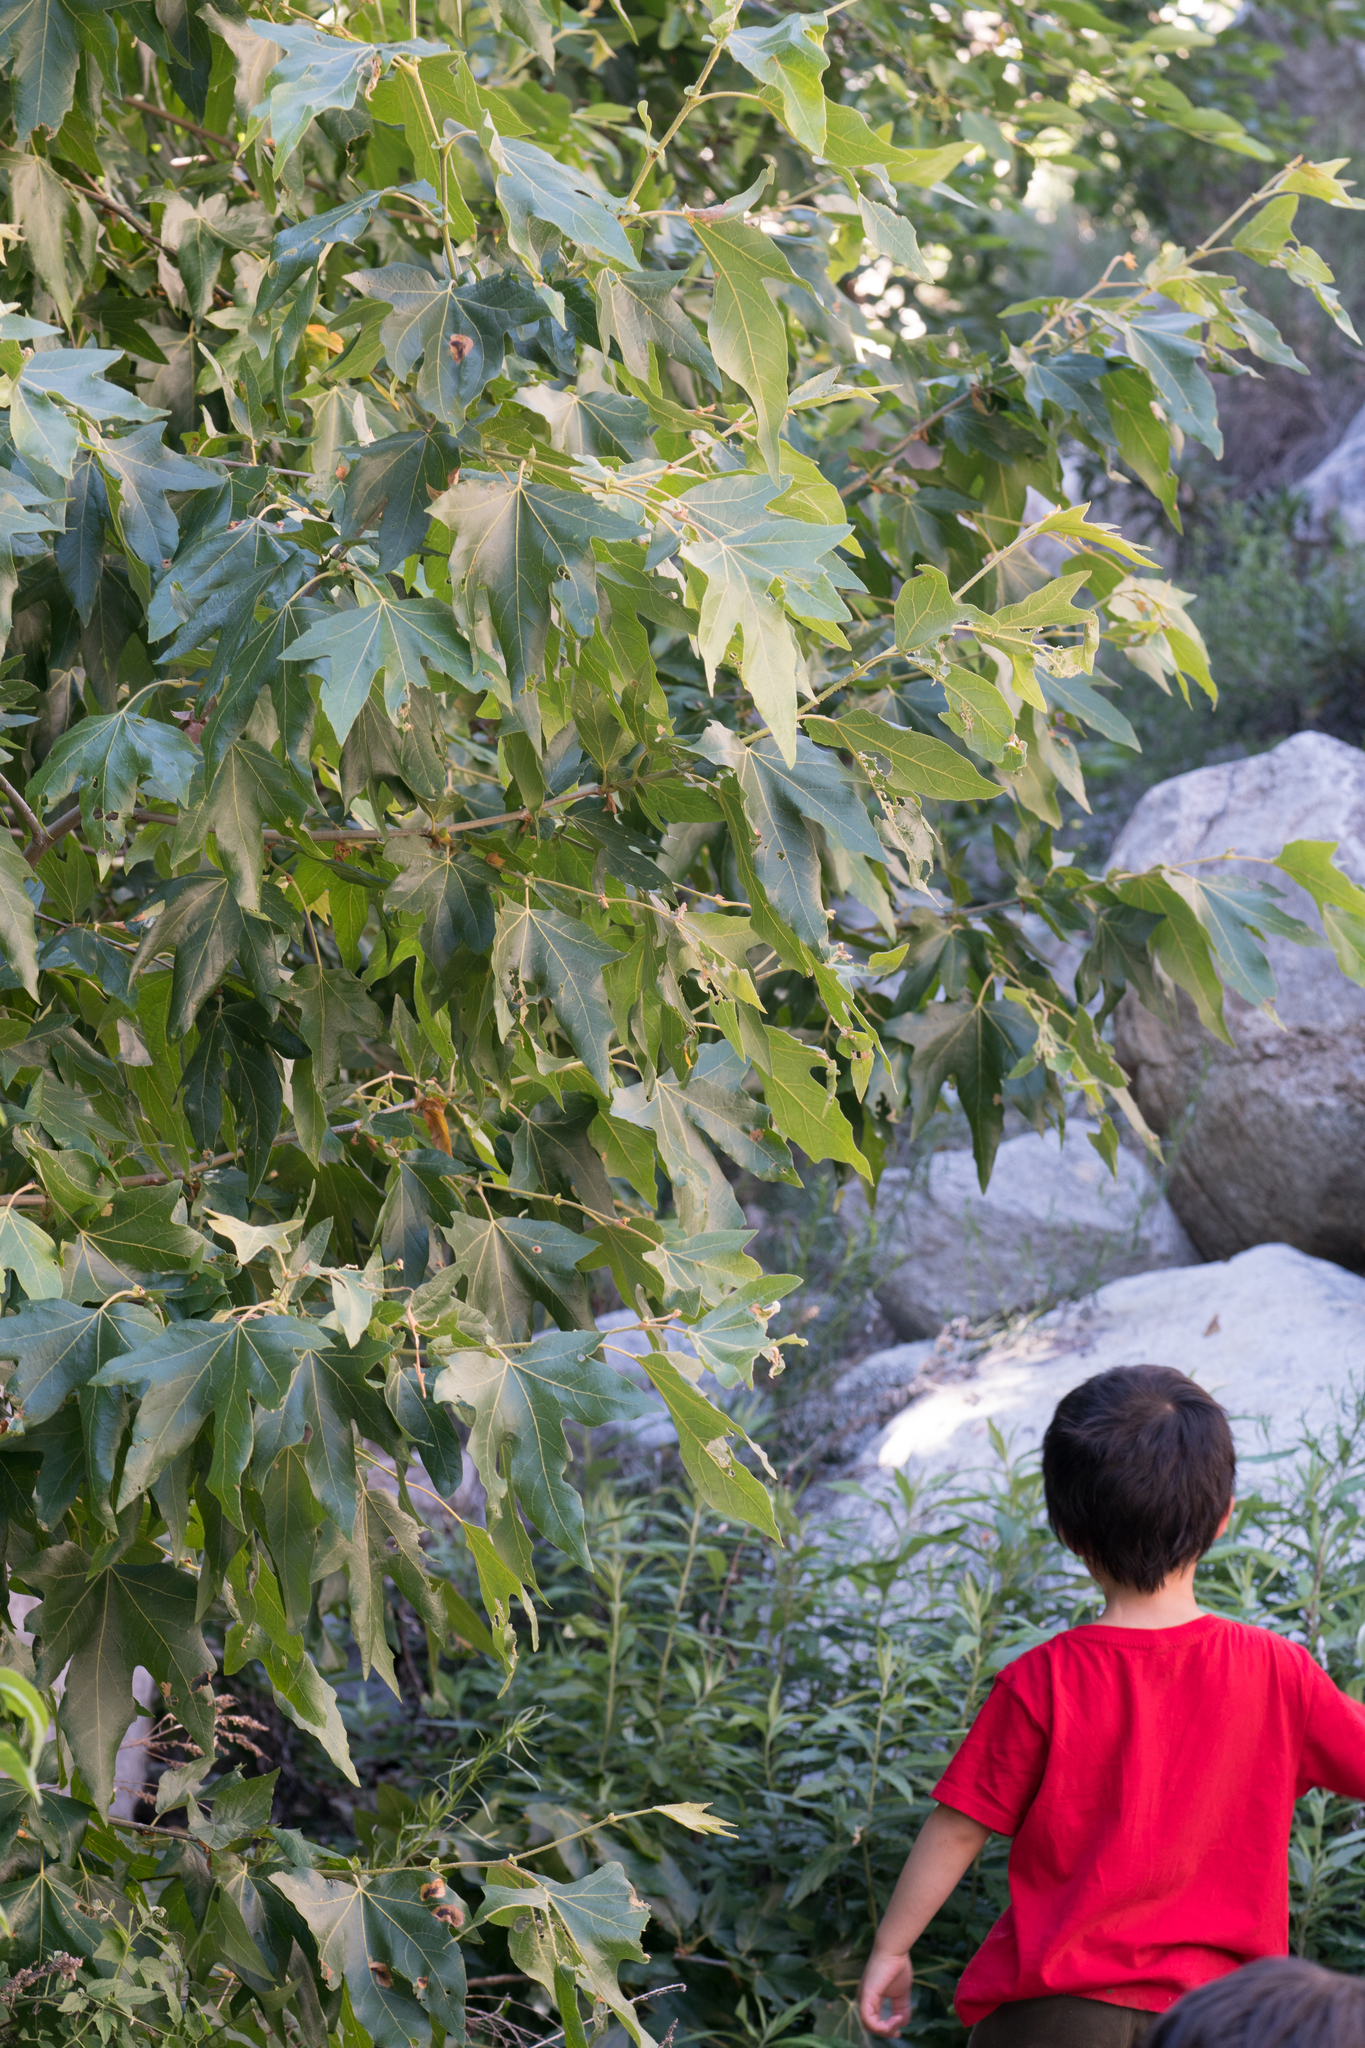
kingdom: Plantae
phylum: Tracheophyta
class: Magnoliopsida
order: Proteales
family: Platanaceae
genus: Platanus
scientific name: Platanus racemosa
